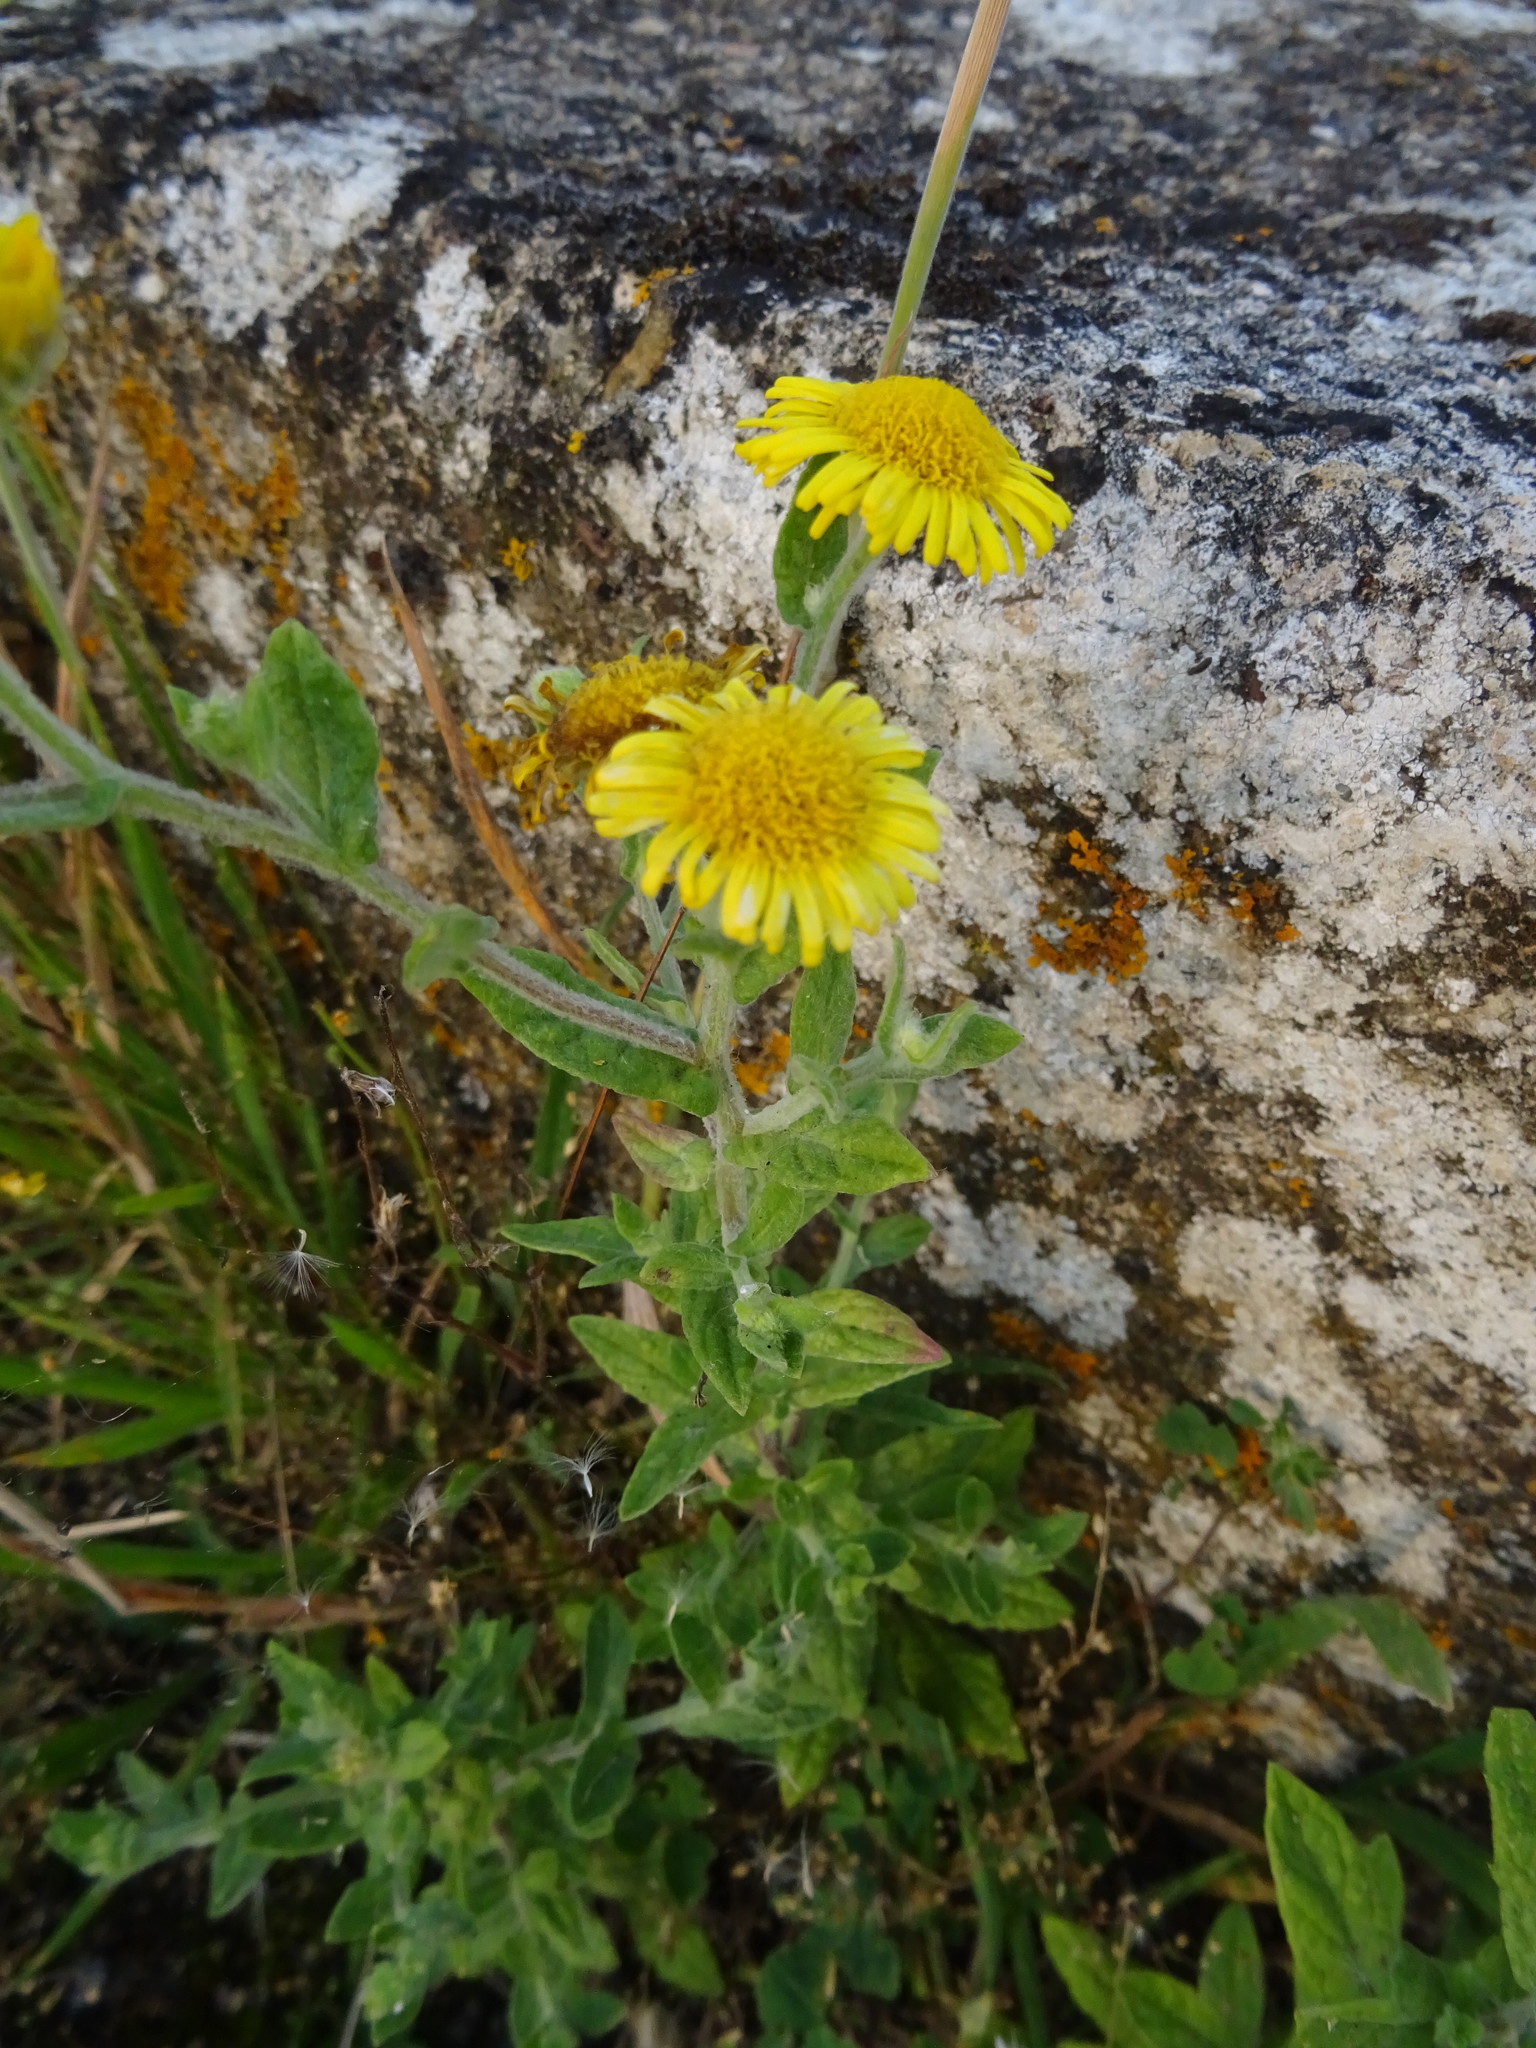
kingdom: Plantae
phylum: Tracheophyta
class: Magnoliopsida
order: Asterales
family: Asteraceae
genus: Pulicaria
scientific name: Pulicaria dysenterica
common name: Common fleabane
